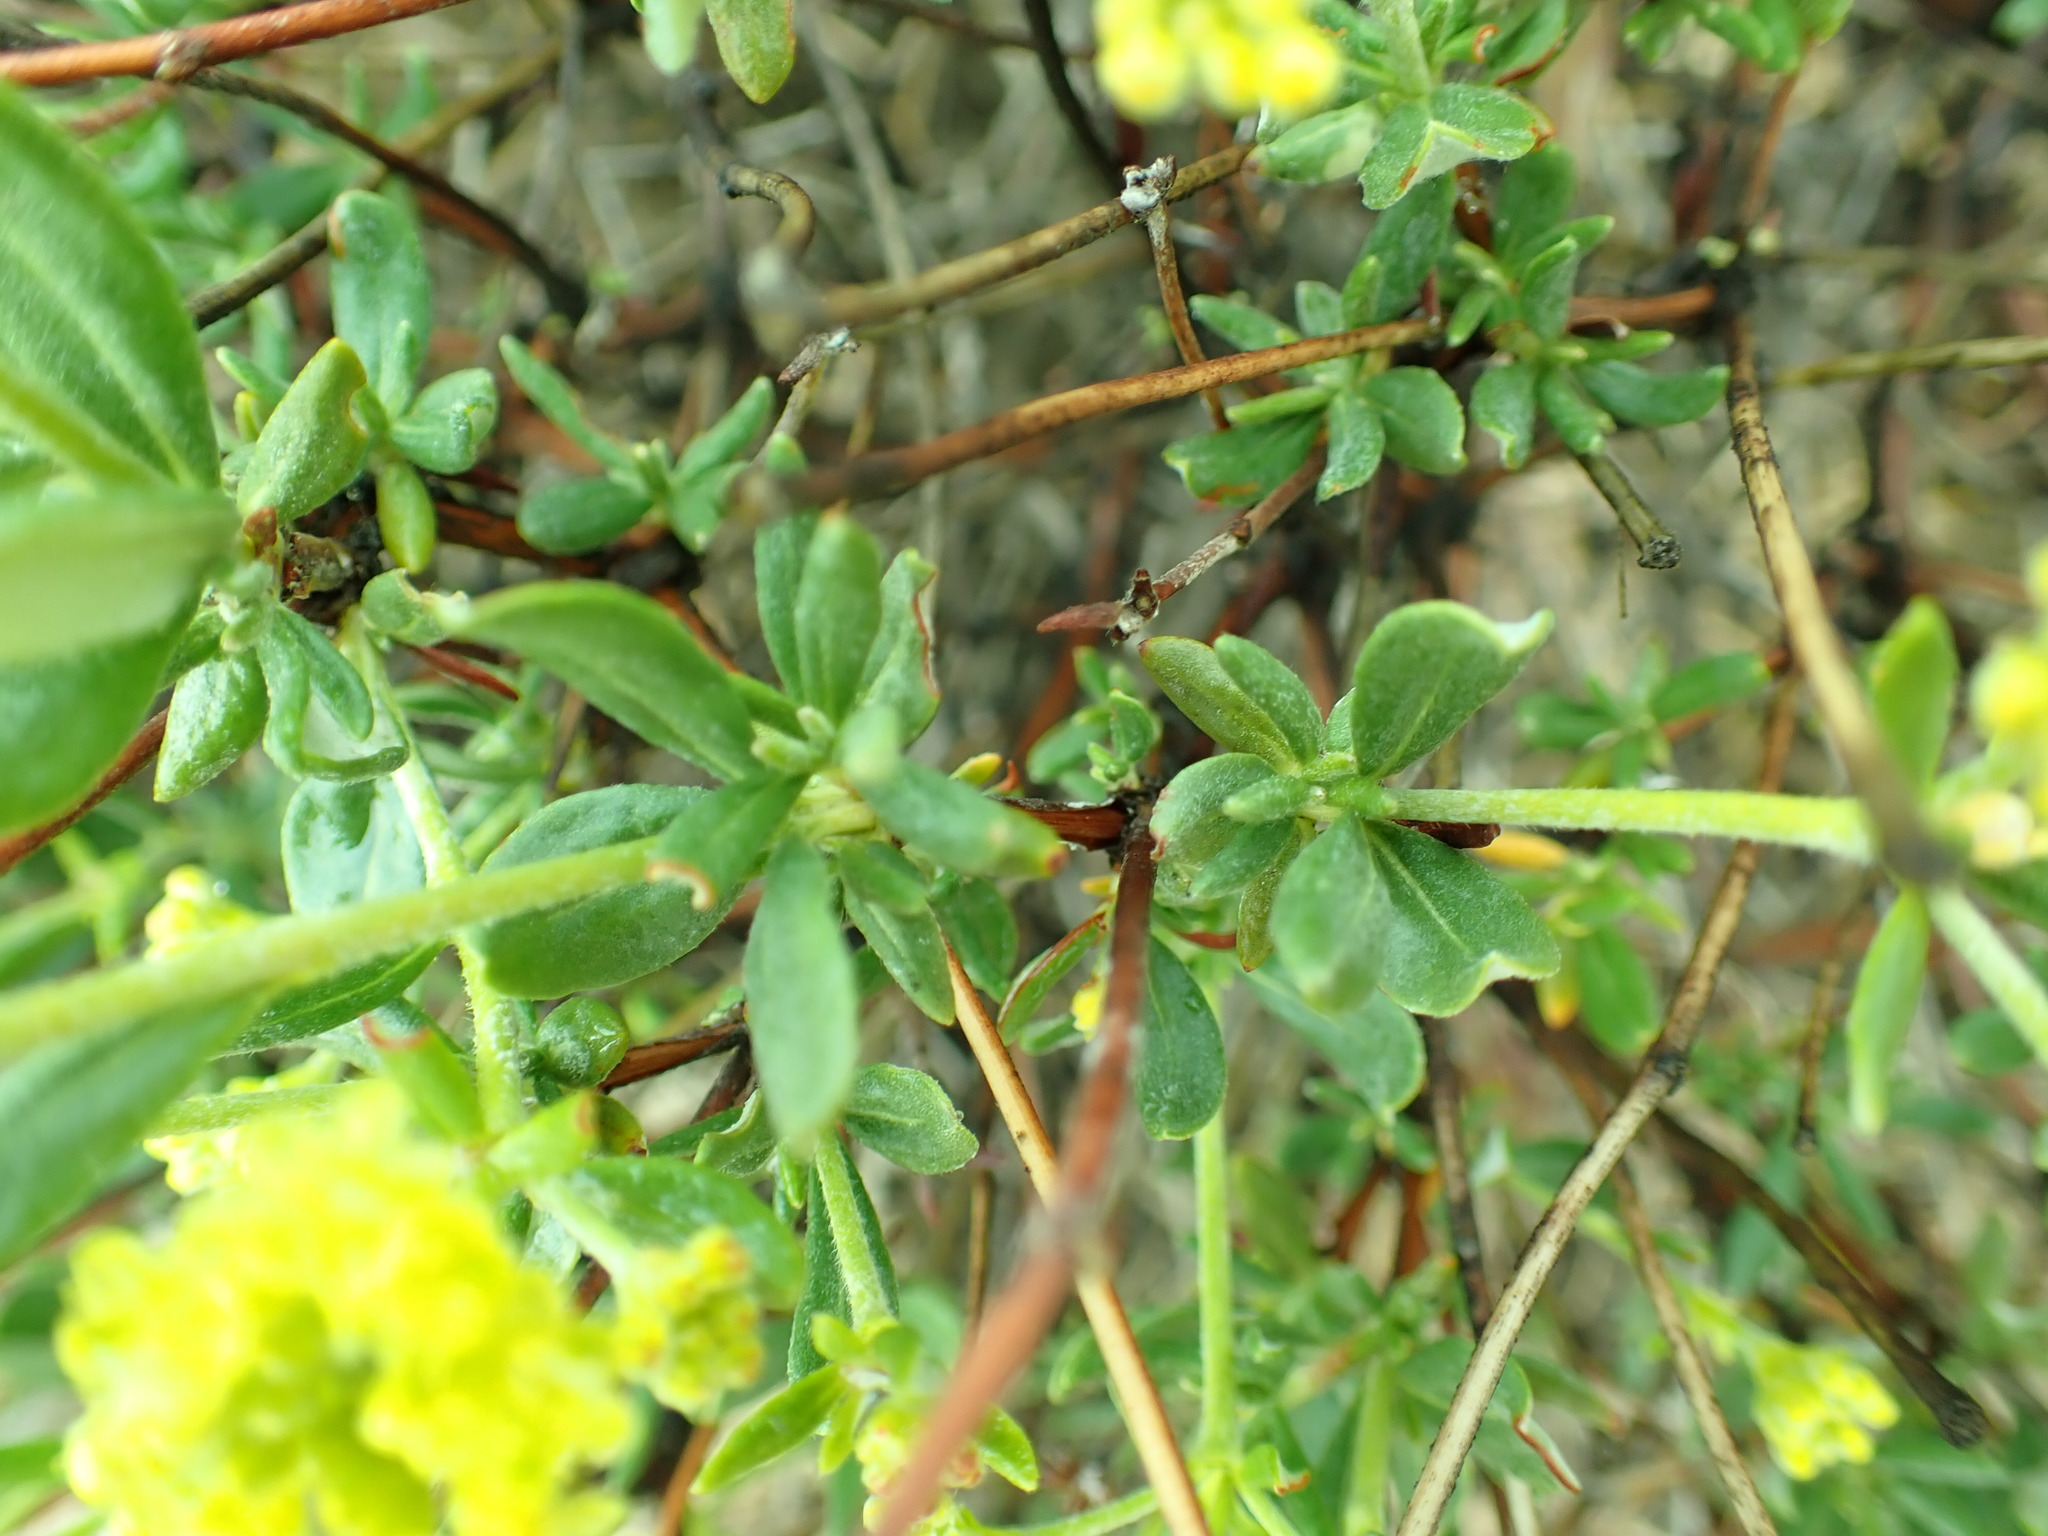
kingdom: Plantae
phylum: Tracheophyta
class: Magnoliopsida
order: Caryophyllales
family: Polygonaceae
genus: Eriogonum
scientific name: Eriogonum sphaerocephalum
